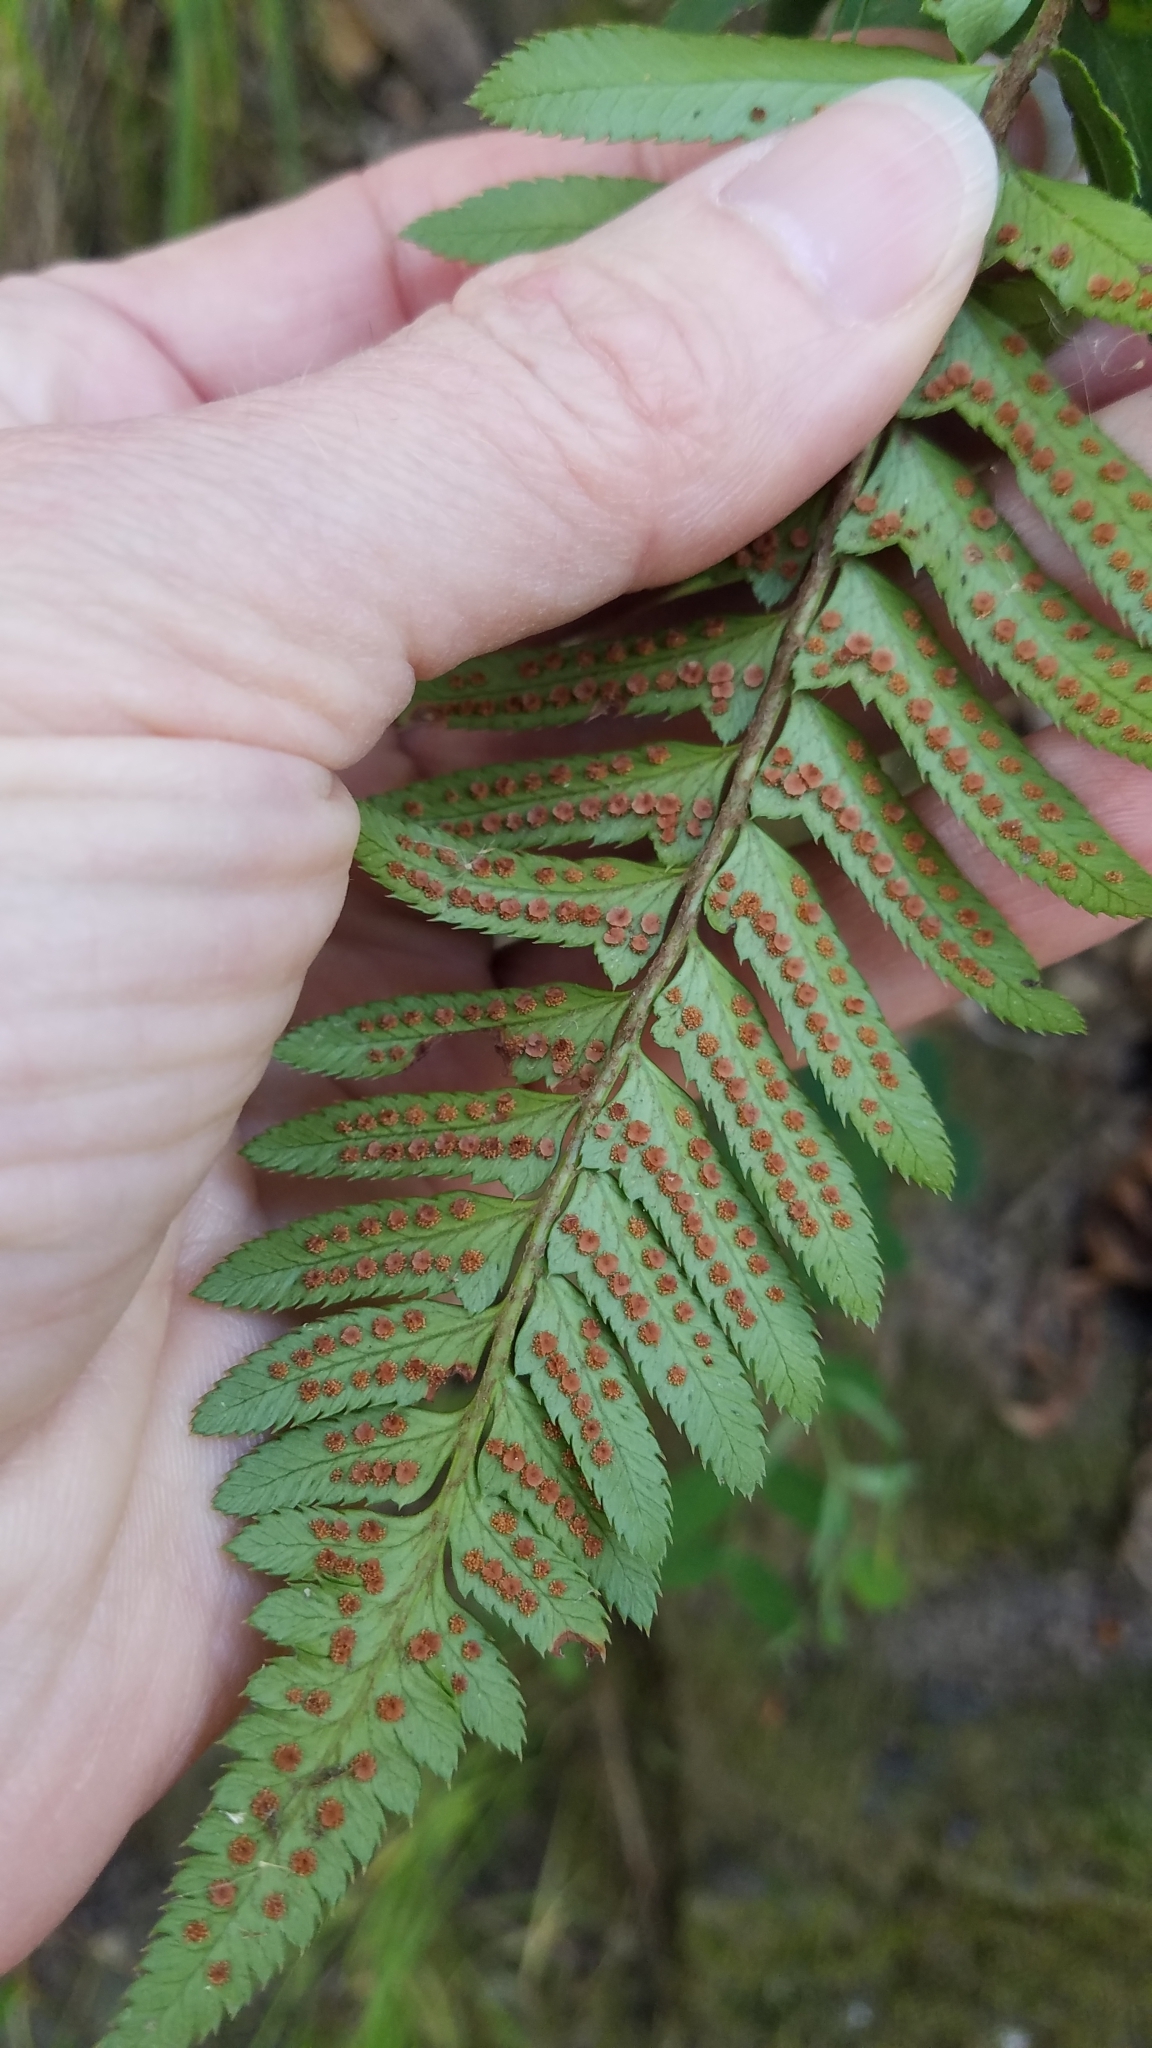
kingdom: Plantae
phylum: Tracheophyta
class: Polypodiopsida
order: Polypodiales
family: Dryopteridaceae
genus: Polystichum
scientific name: Polystichum munitum
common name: Western sword-fern
